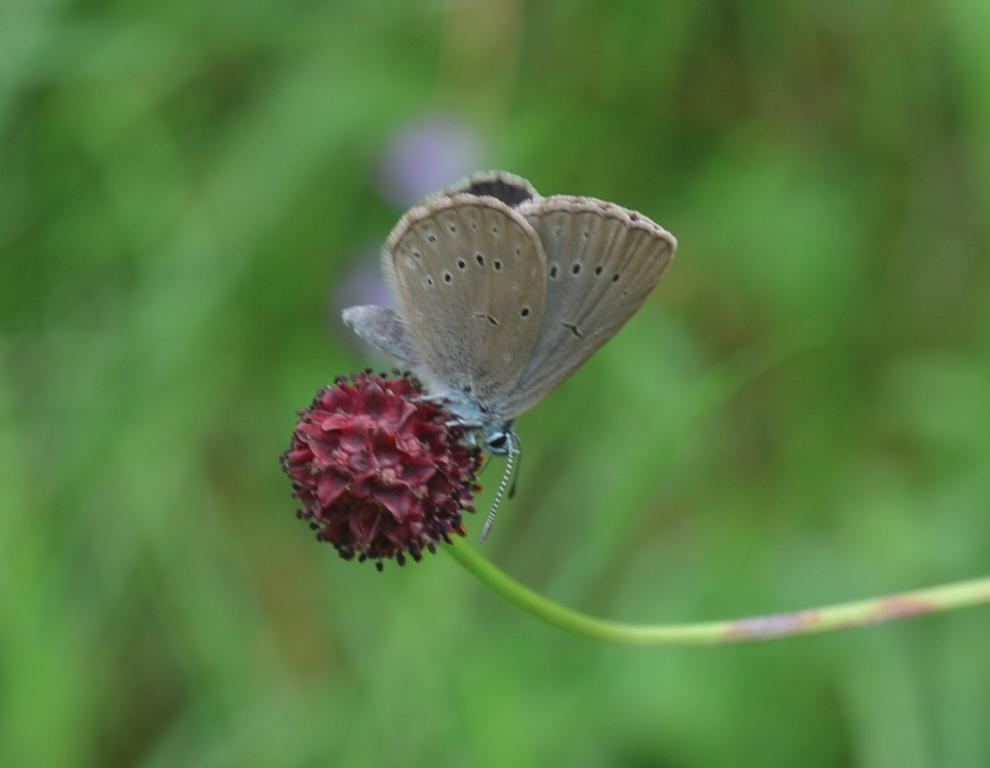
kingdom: Animalia
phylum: Arthropoda
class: Insecta
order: Lepidoptera
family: Lycaenidae
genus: Phengaris
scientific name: Phengaris teleius
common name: Scarce large blue
